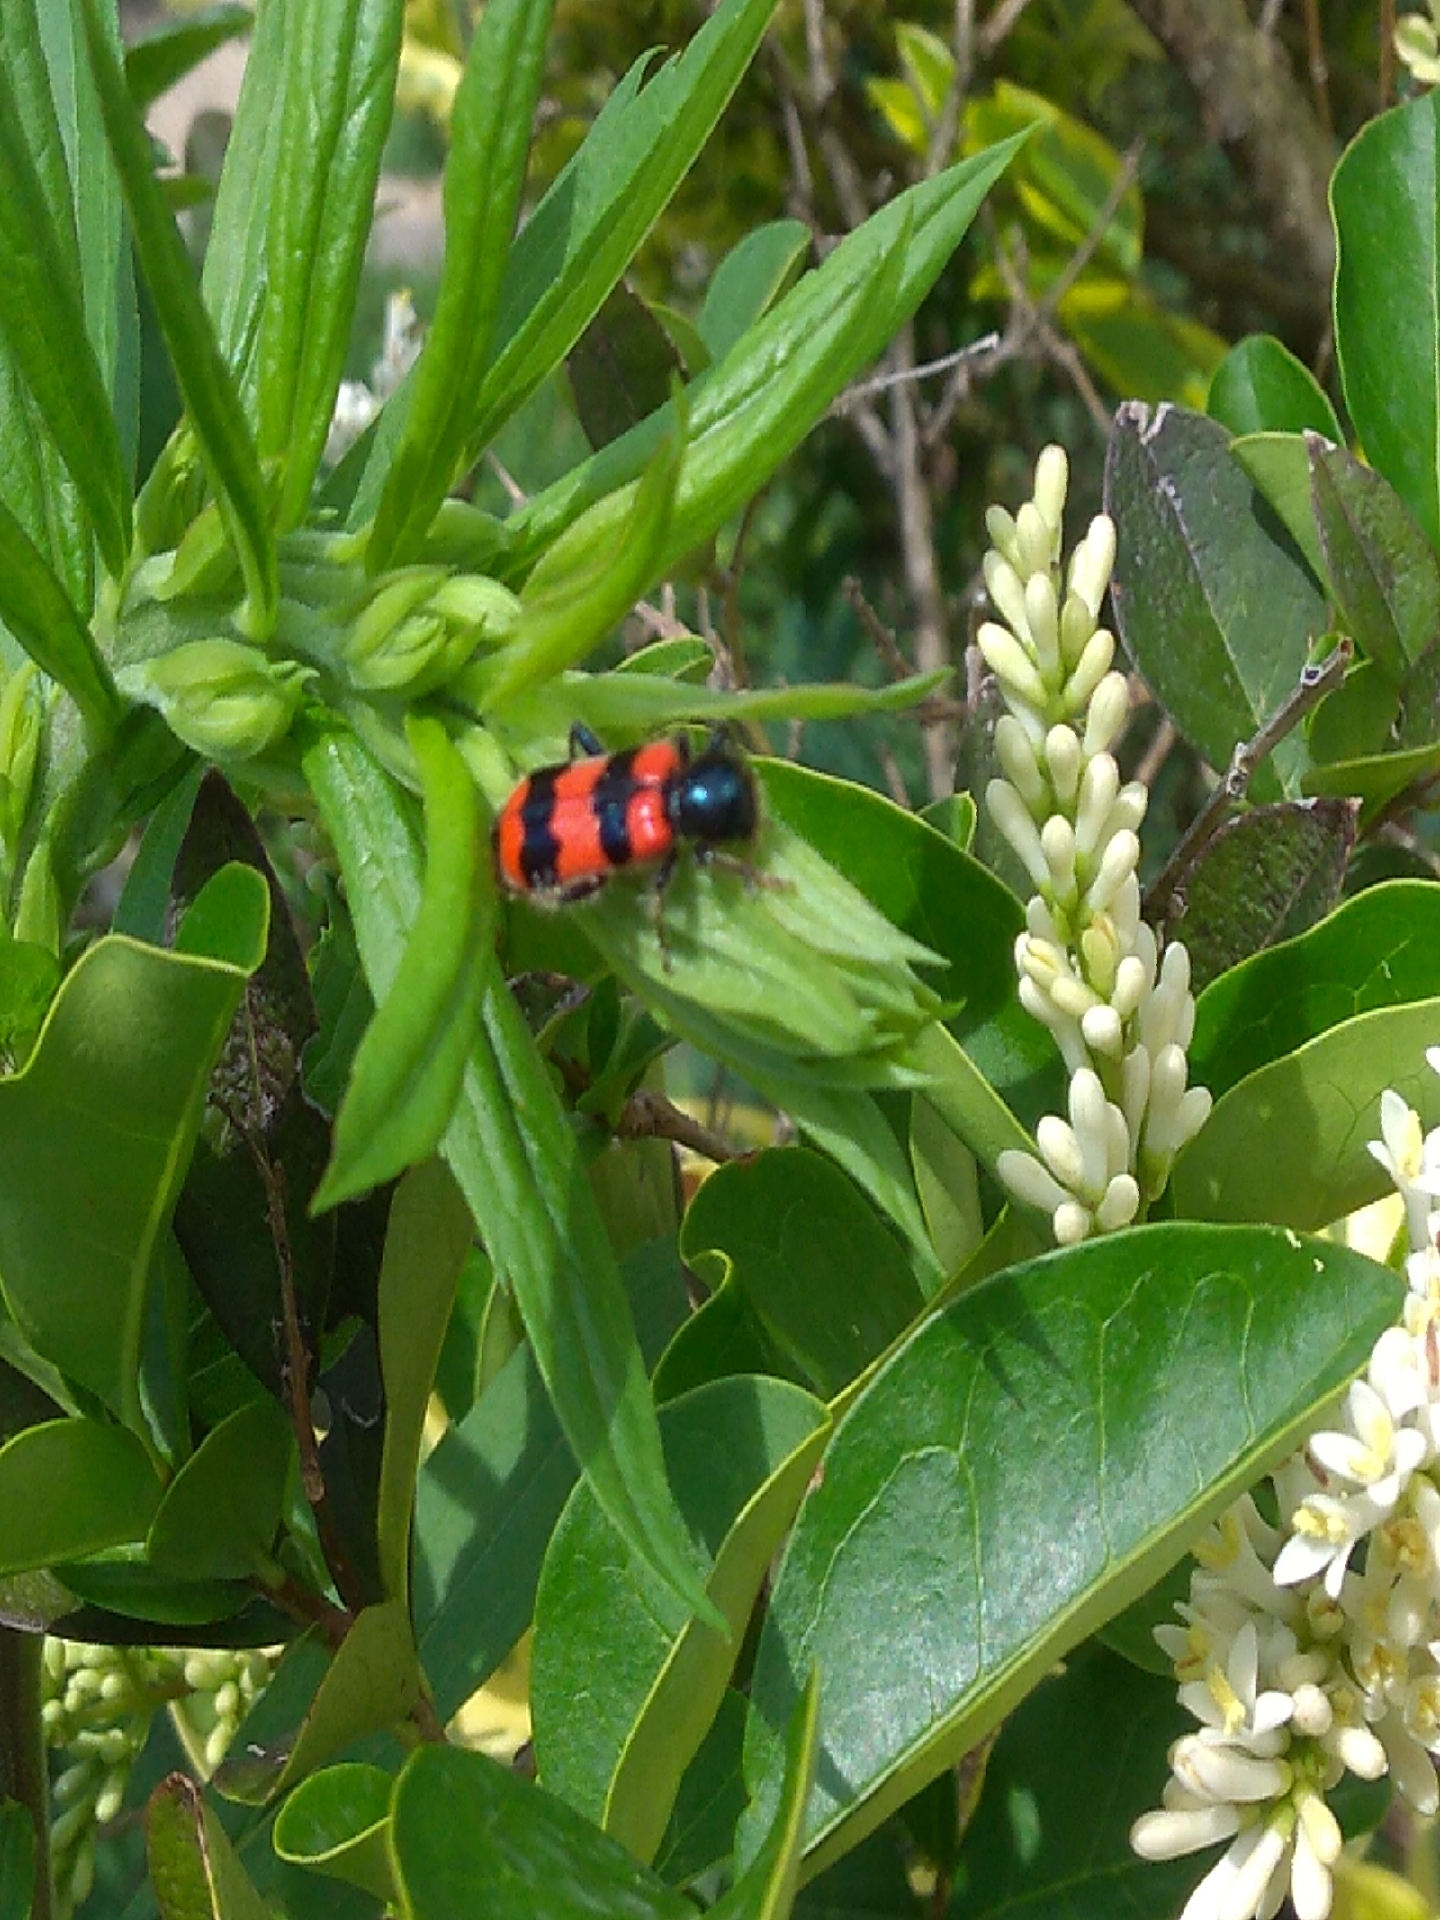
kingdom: Animalia
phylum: Arthropoda
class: Insecta
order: Coleoptera
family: Cleridae
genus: Trichodes
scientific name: Trichodes apiarius
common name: Bee-eating beetle
